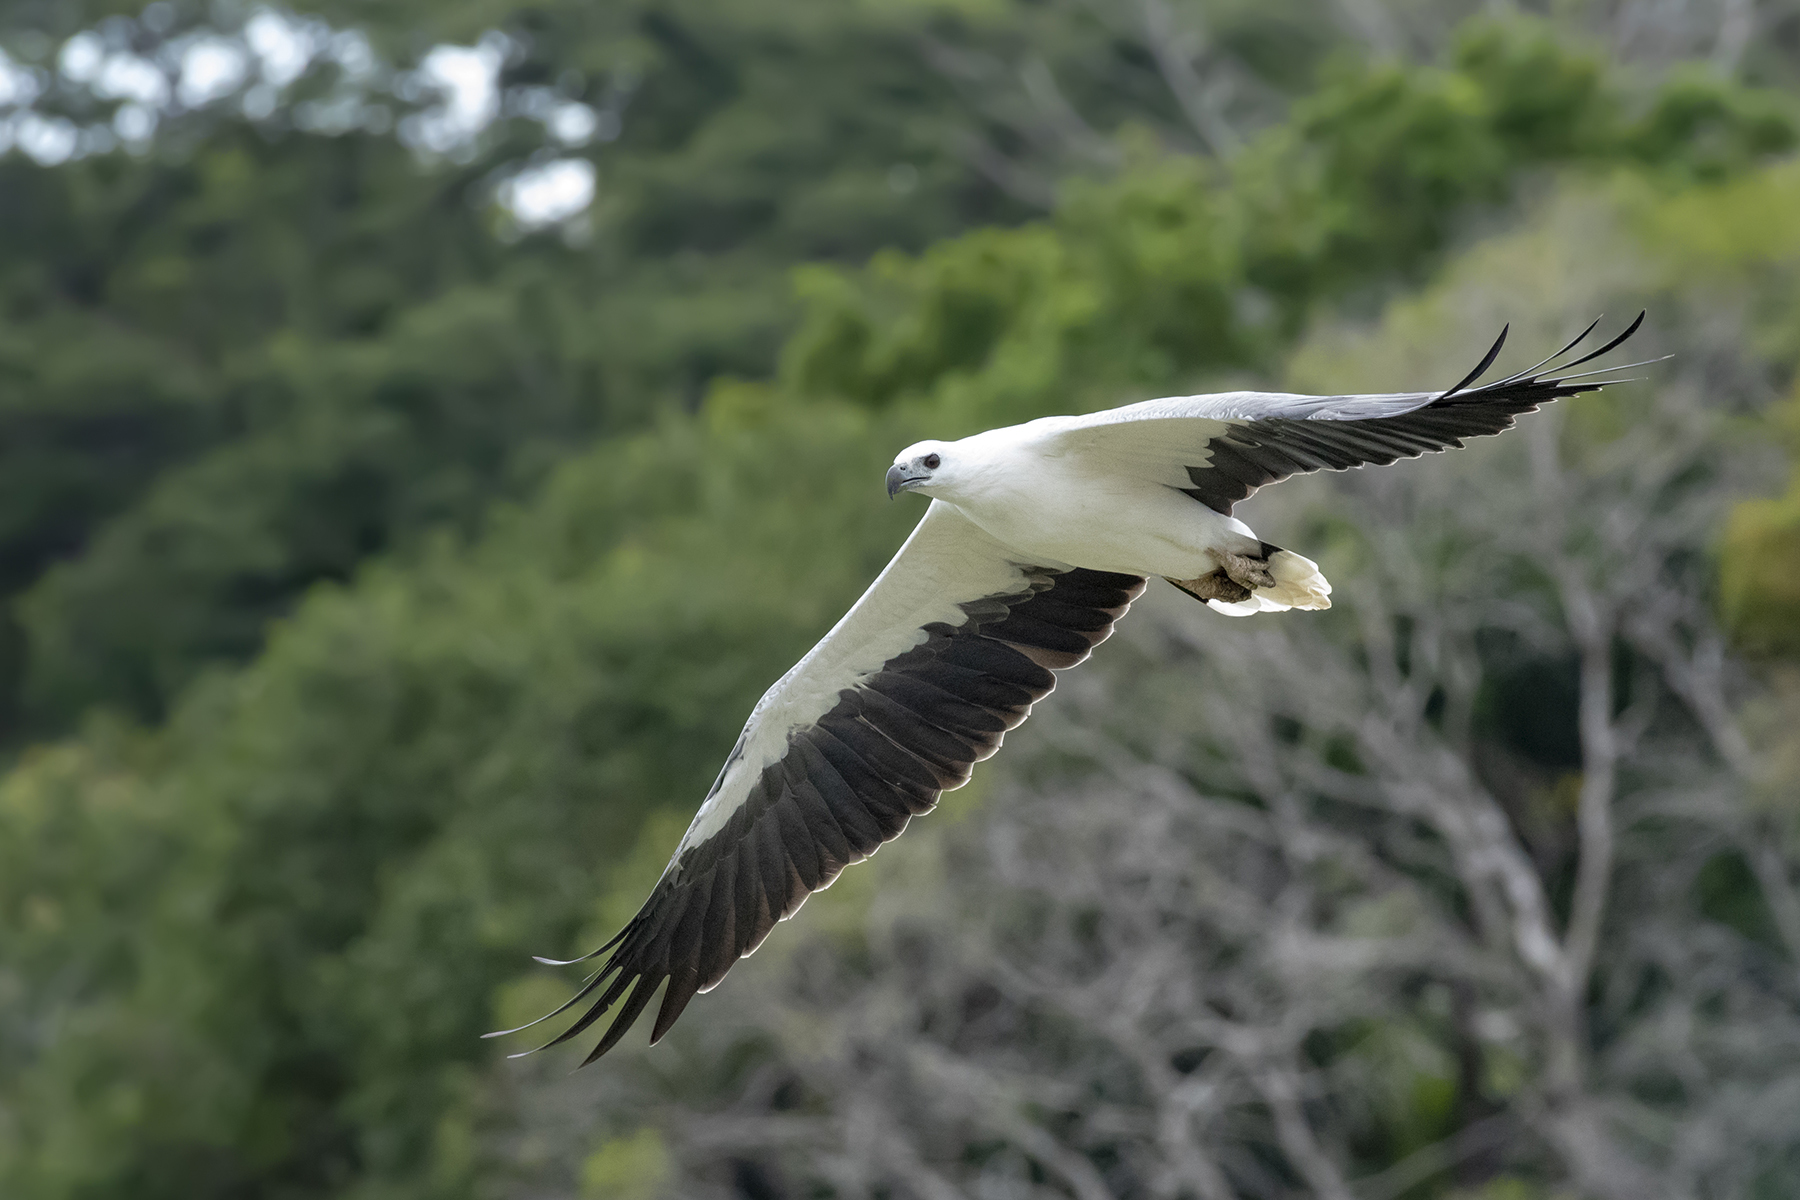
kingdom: Animalia
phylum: Chordata
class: Aves
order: Accipitriformes
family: Accipitridae
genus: Haliaeetus
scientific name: Haliaeetus leucogaster
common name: White-bellied sea eagle
